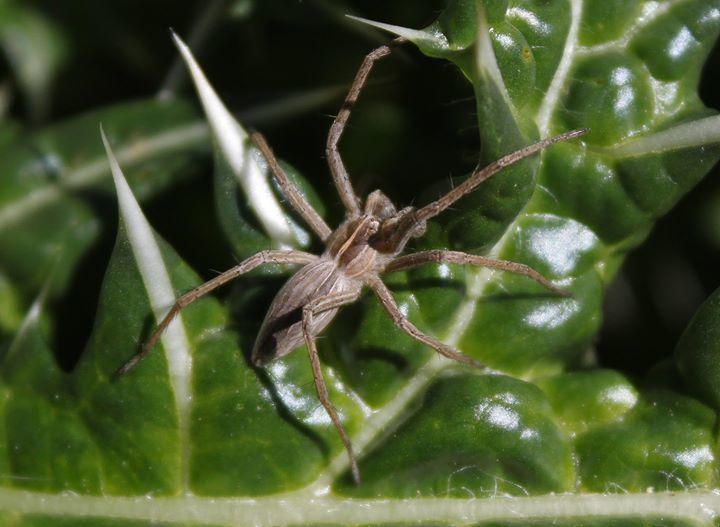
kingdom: Animalia
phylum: Arthropoda
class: Arachnida
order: Araneae
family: Pisauridae
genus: Pisaura
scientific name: Pisaura mirabilis
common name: Tent spider
